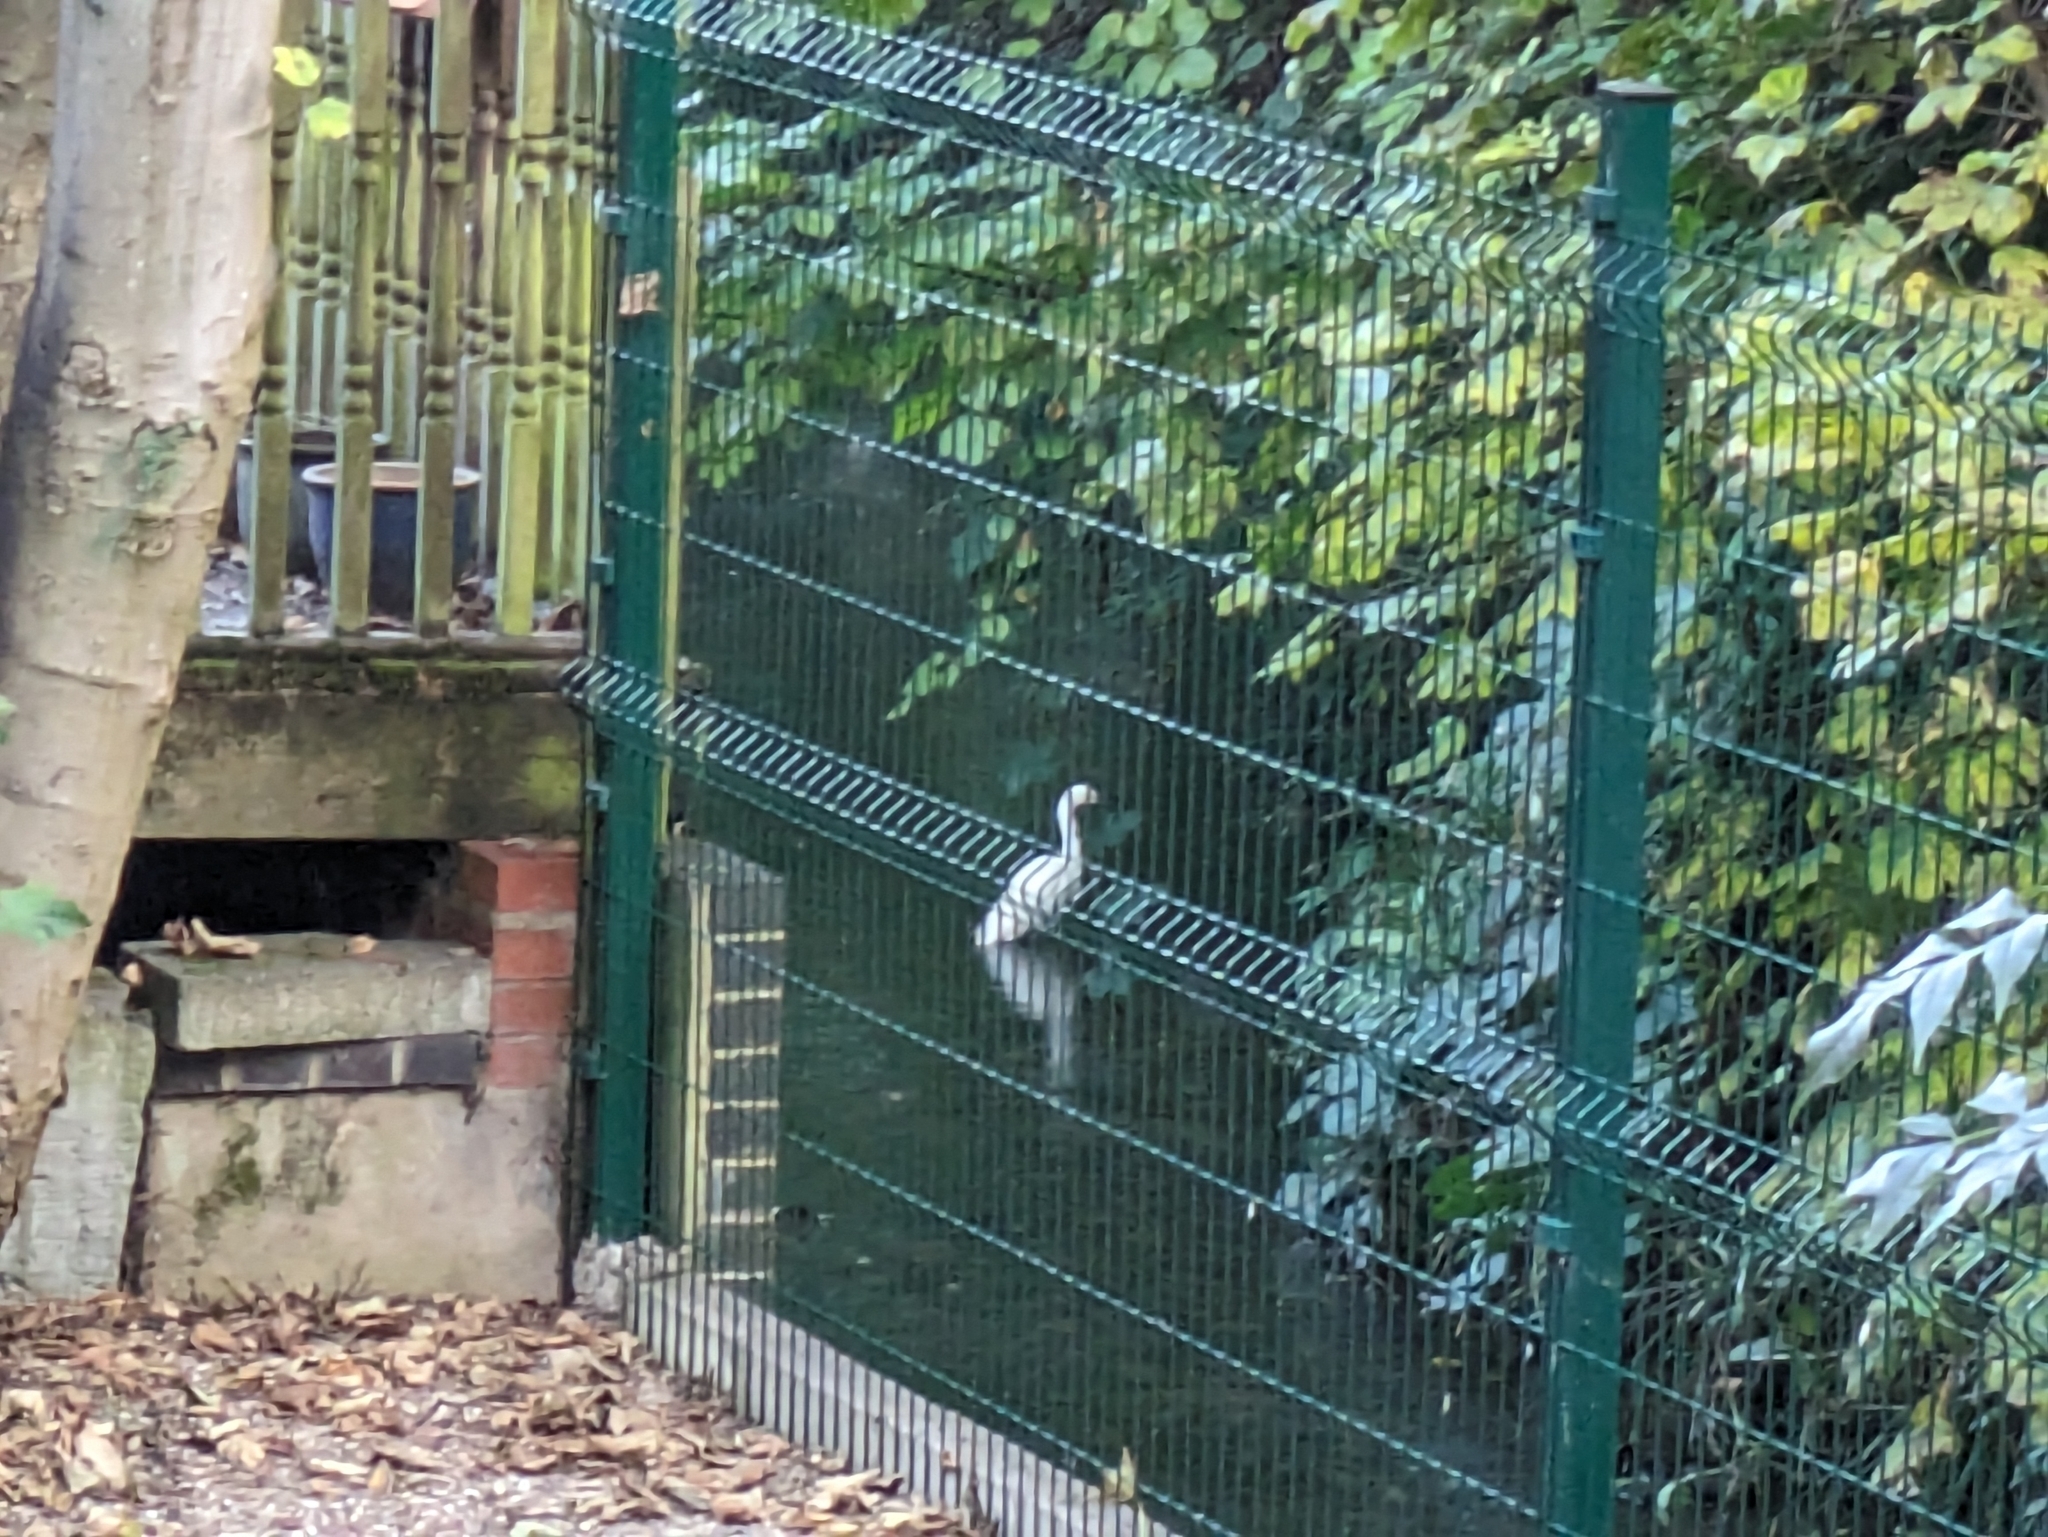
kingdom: Animalia
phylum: Chordata
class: Aves
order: Pelecaniformes
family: Ardeidae
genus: Egretta
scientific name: Egretta garzetta
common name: Little egret
